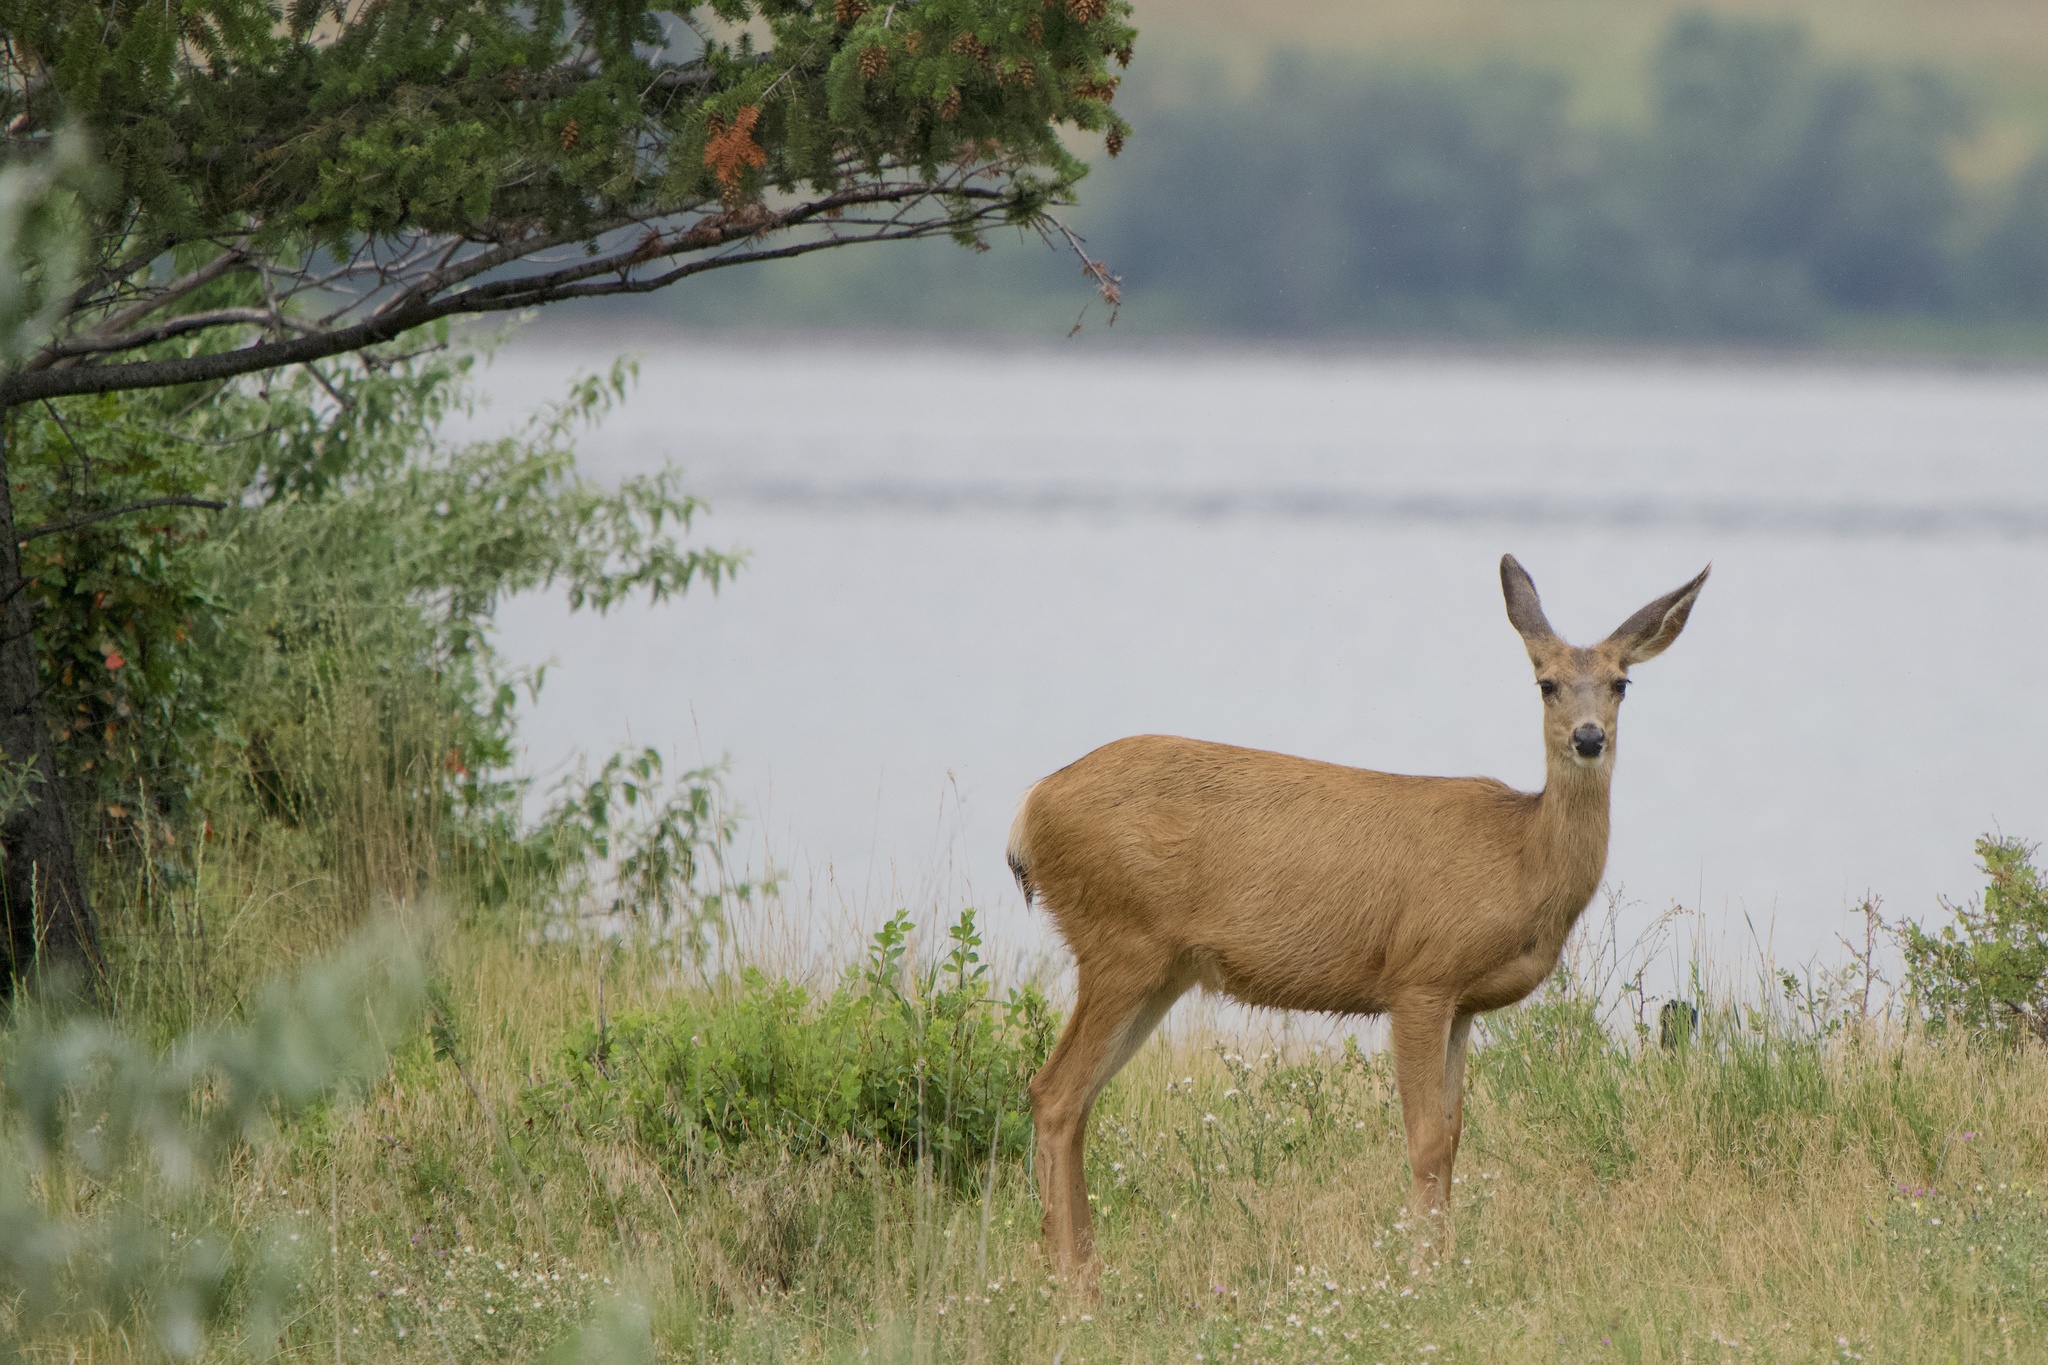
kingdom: Animalia
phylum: Chordata
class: Mammalia
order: Artiodactyla
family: Cervidae
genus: Odocoileus
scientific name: Odocoileus hemionus
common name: Mule deer
